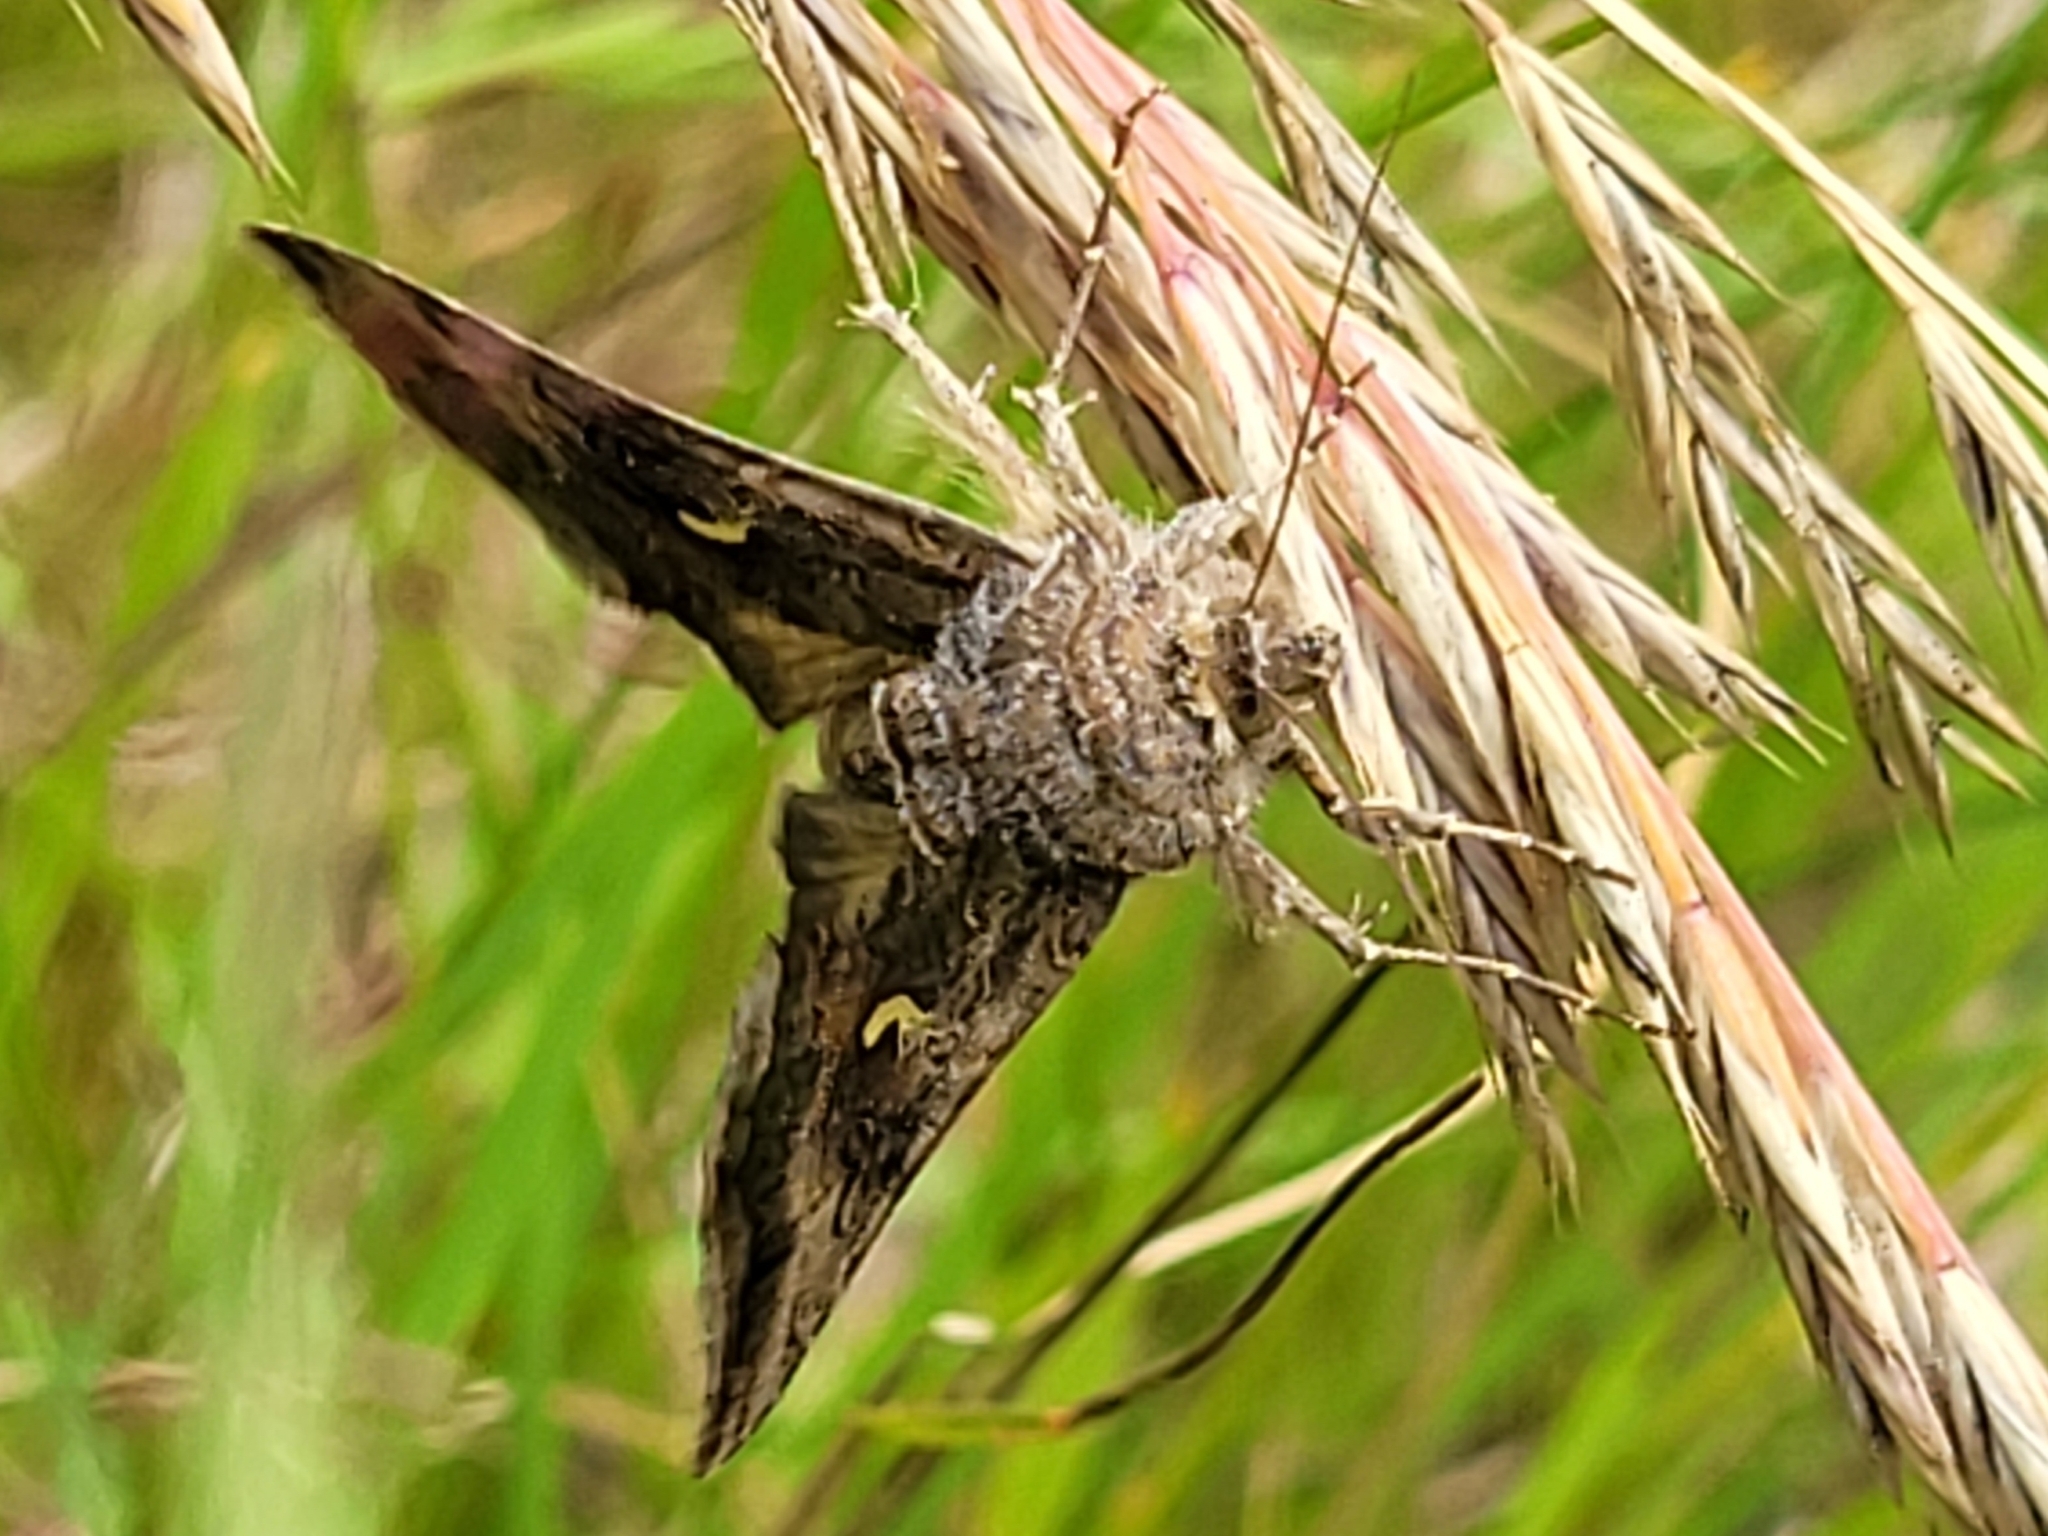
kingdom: Animalia
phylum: Arthropoda
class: Insecta
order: Lepidoptera
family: Noctuidae
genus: Autographa
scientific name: Autographa gamma
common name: Silver y
